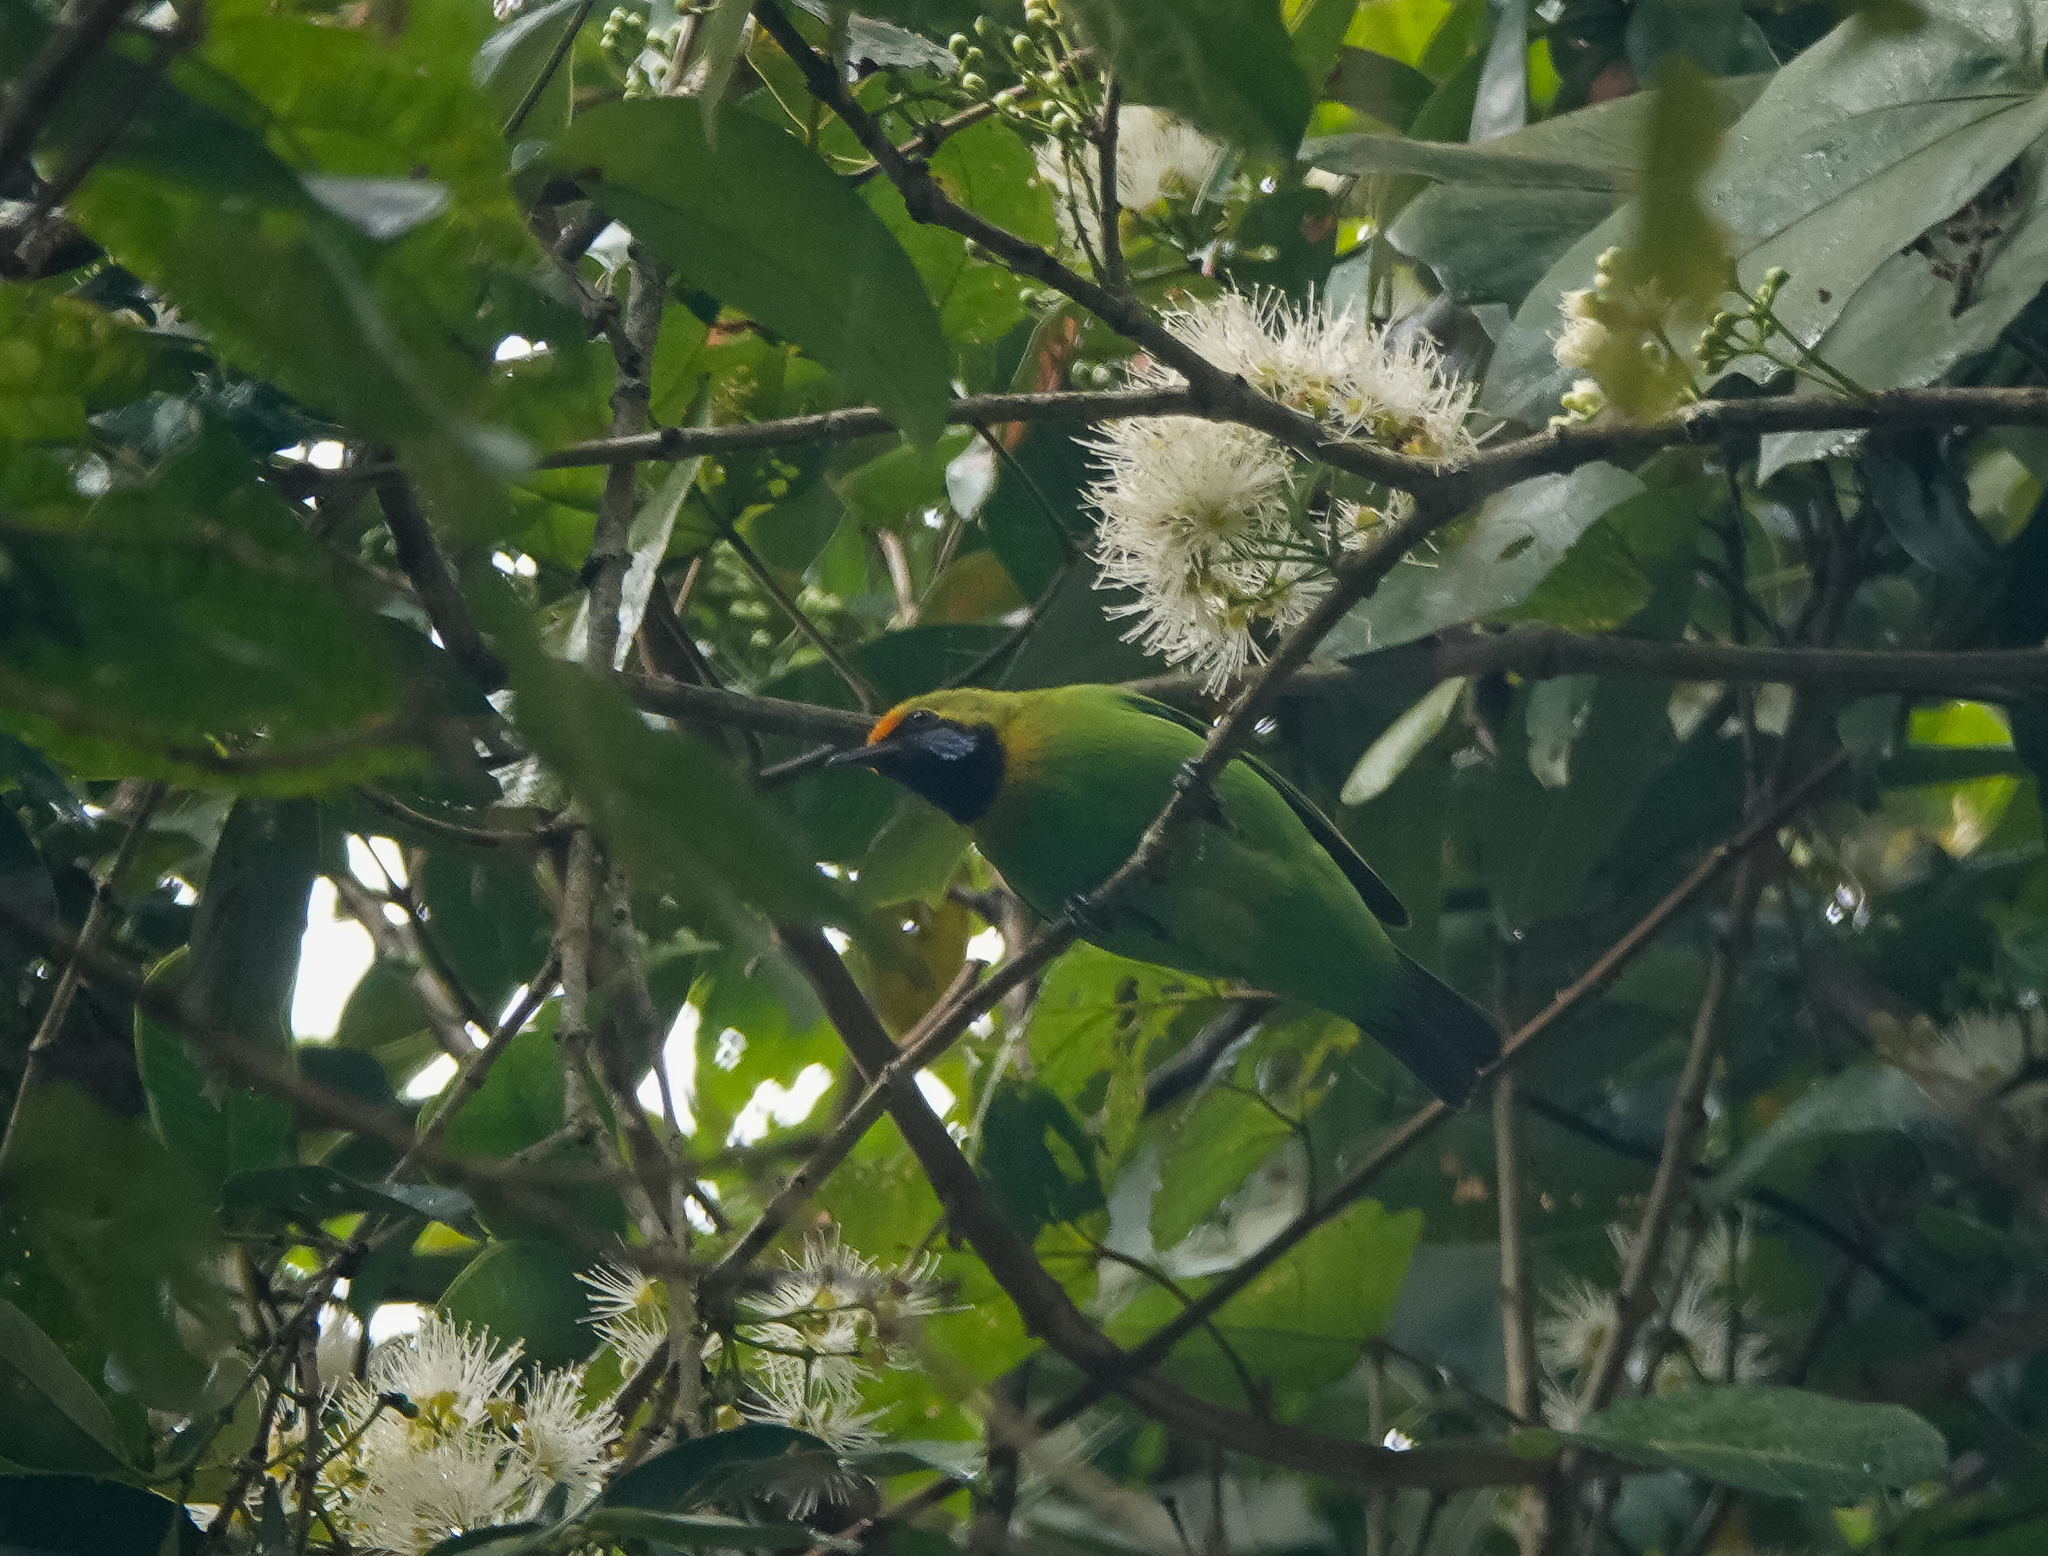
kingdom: Animalia
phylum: Chordata
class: Aves
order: Passeriformes
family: Chloropseidae
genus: Chloropsis
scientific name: Chloropsis aurifrons
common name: Golden-fronted leafbird
